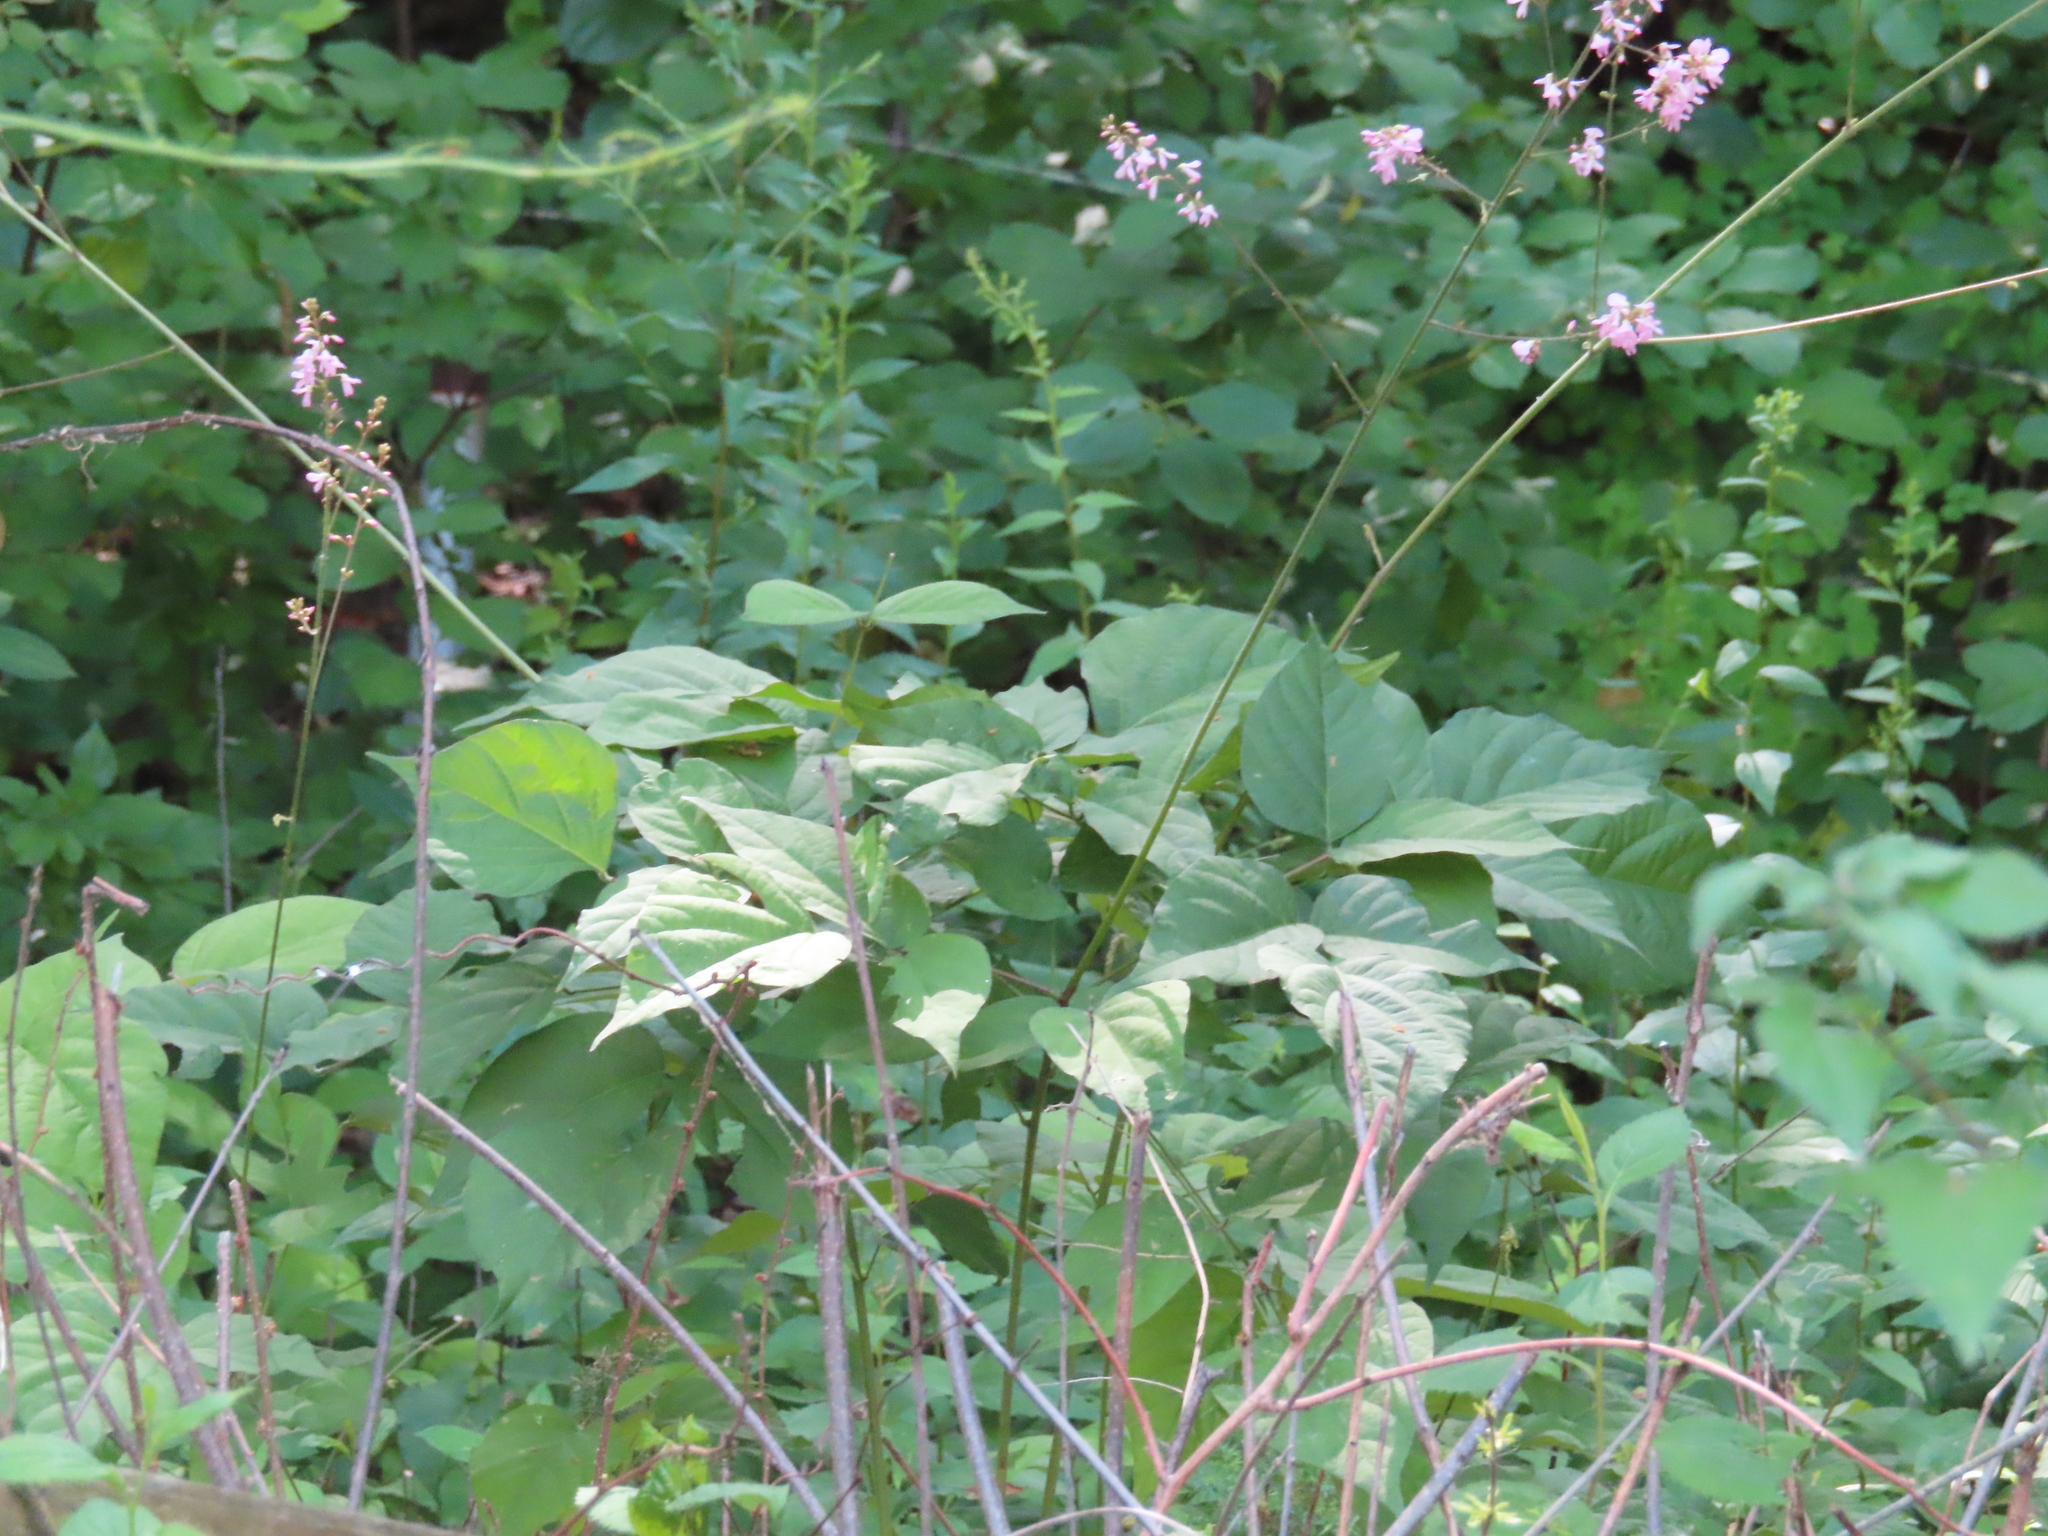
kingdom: Plantae
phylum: Tracheophyta
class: Magnoliopsida
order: Fabales
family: Fabaceae
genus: Hylodesmum
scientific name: Hylodesmum glutinosum
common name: Clustered-leaved tick-trefoil
